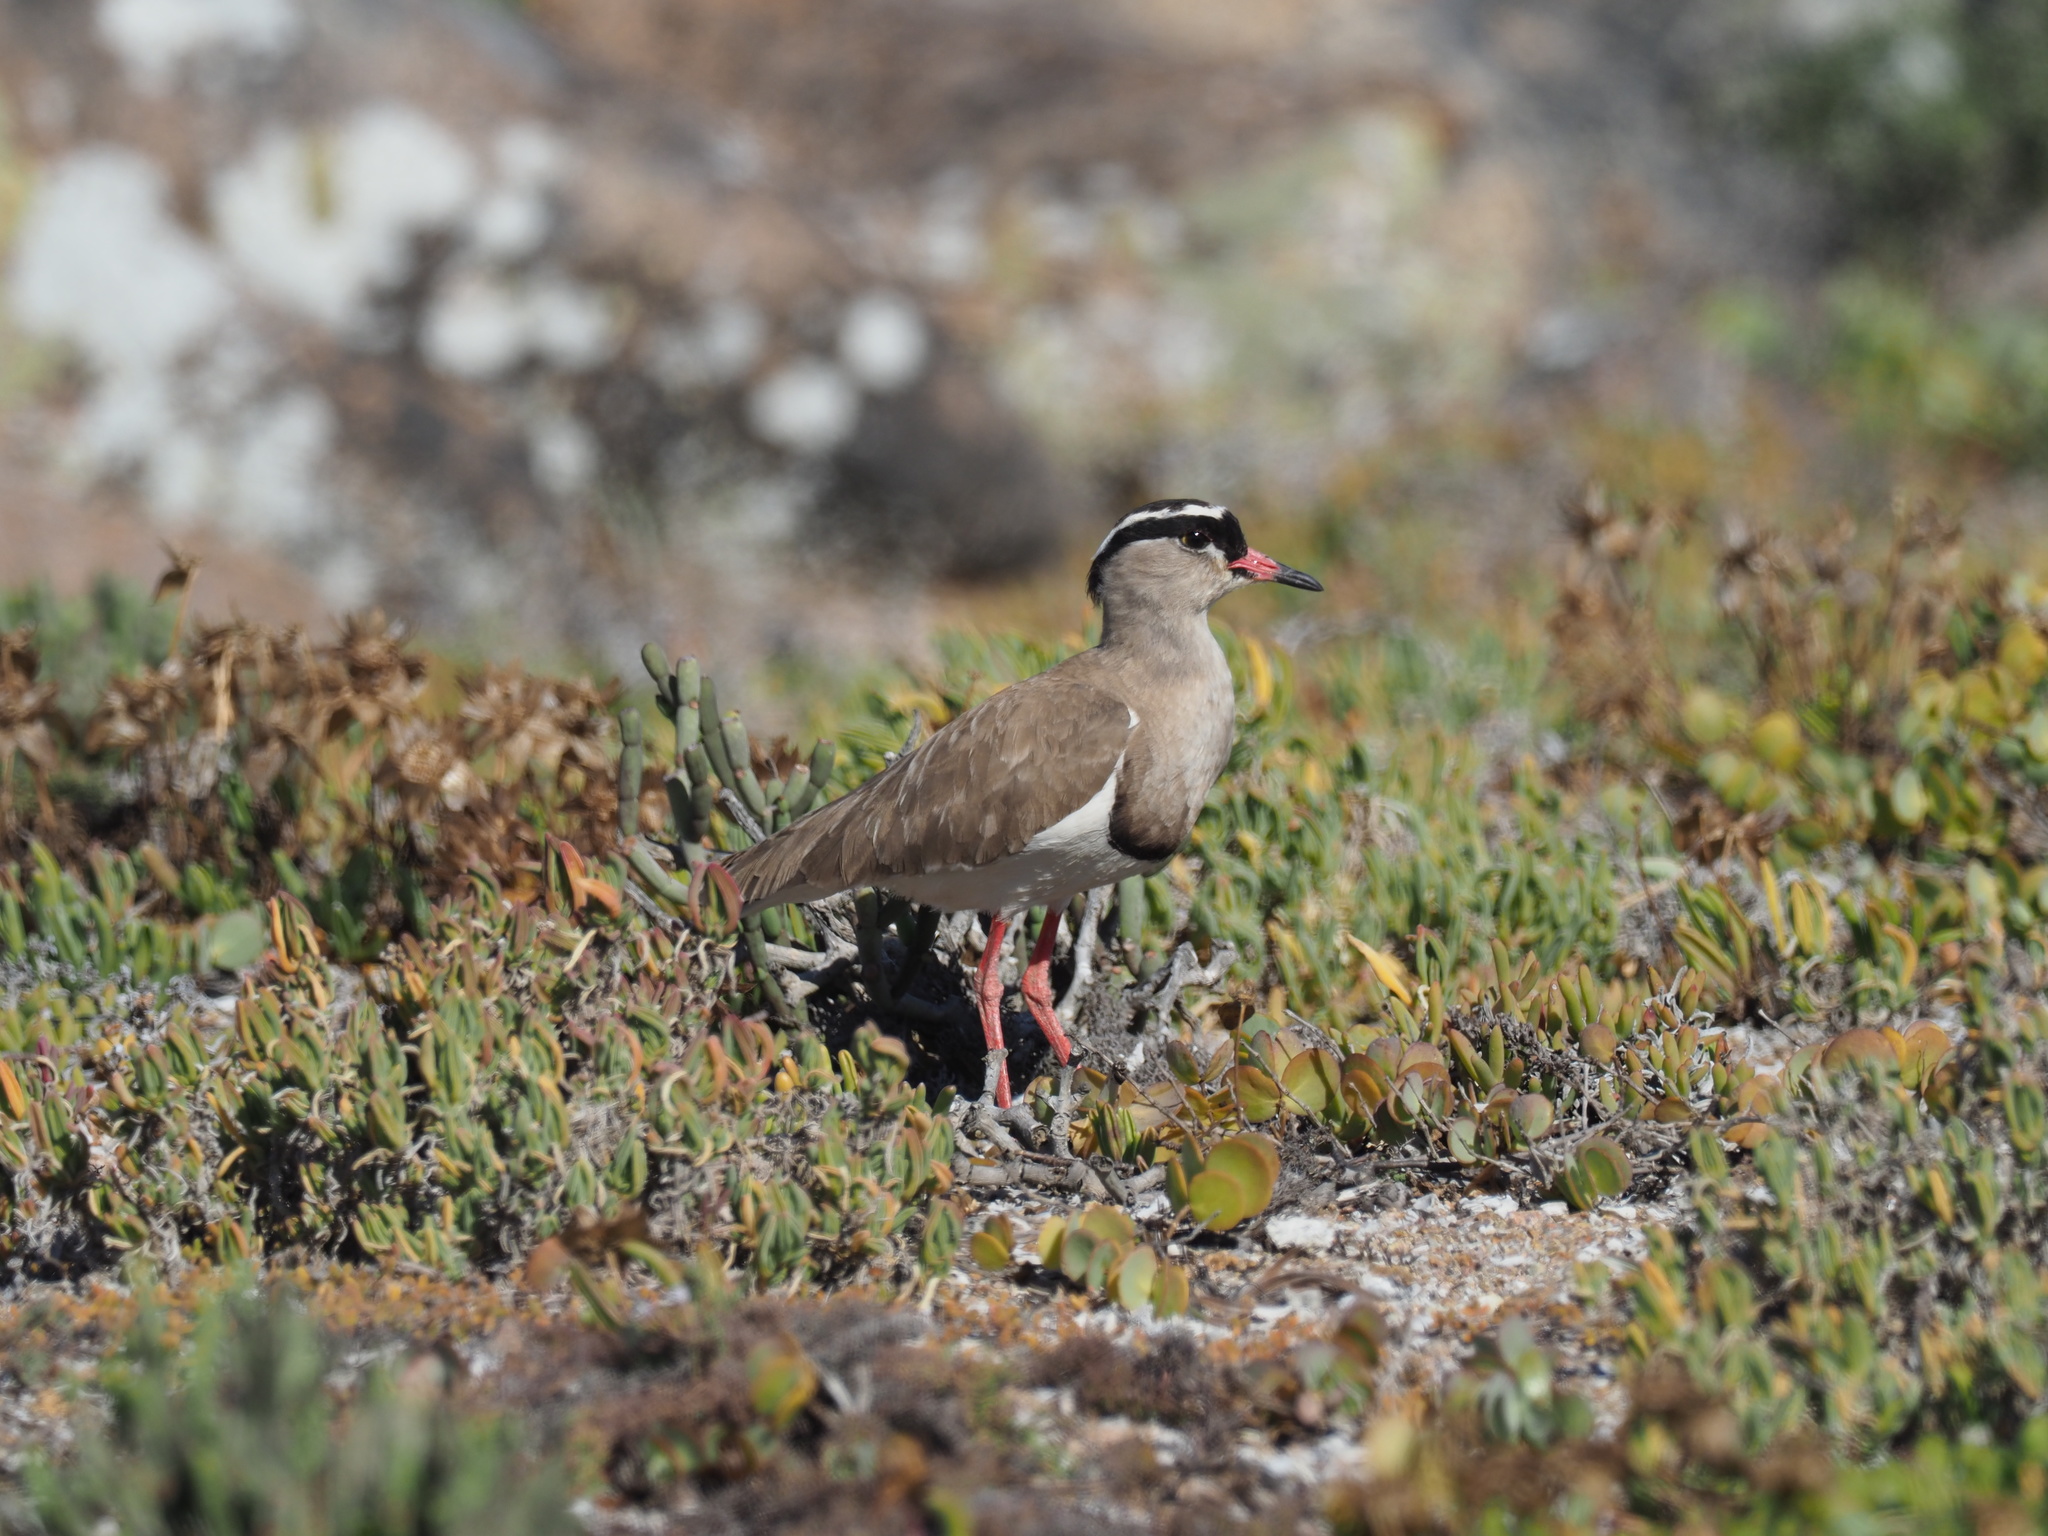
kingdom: Animalia
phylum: Chordata
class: Aves
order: Charadriiformes
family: Charadriidae
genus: Vanellus
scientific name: Vanellus coronatus
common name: Crowned lapwing
